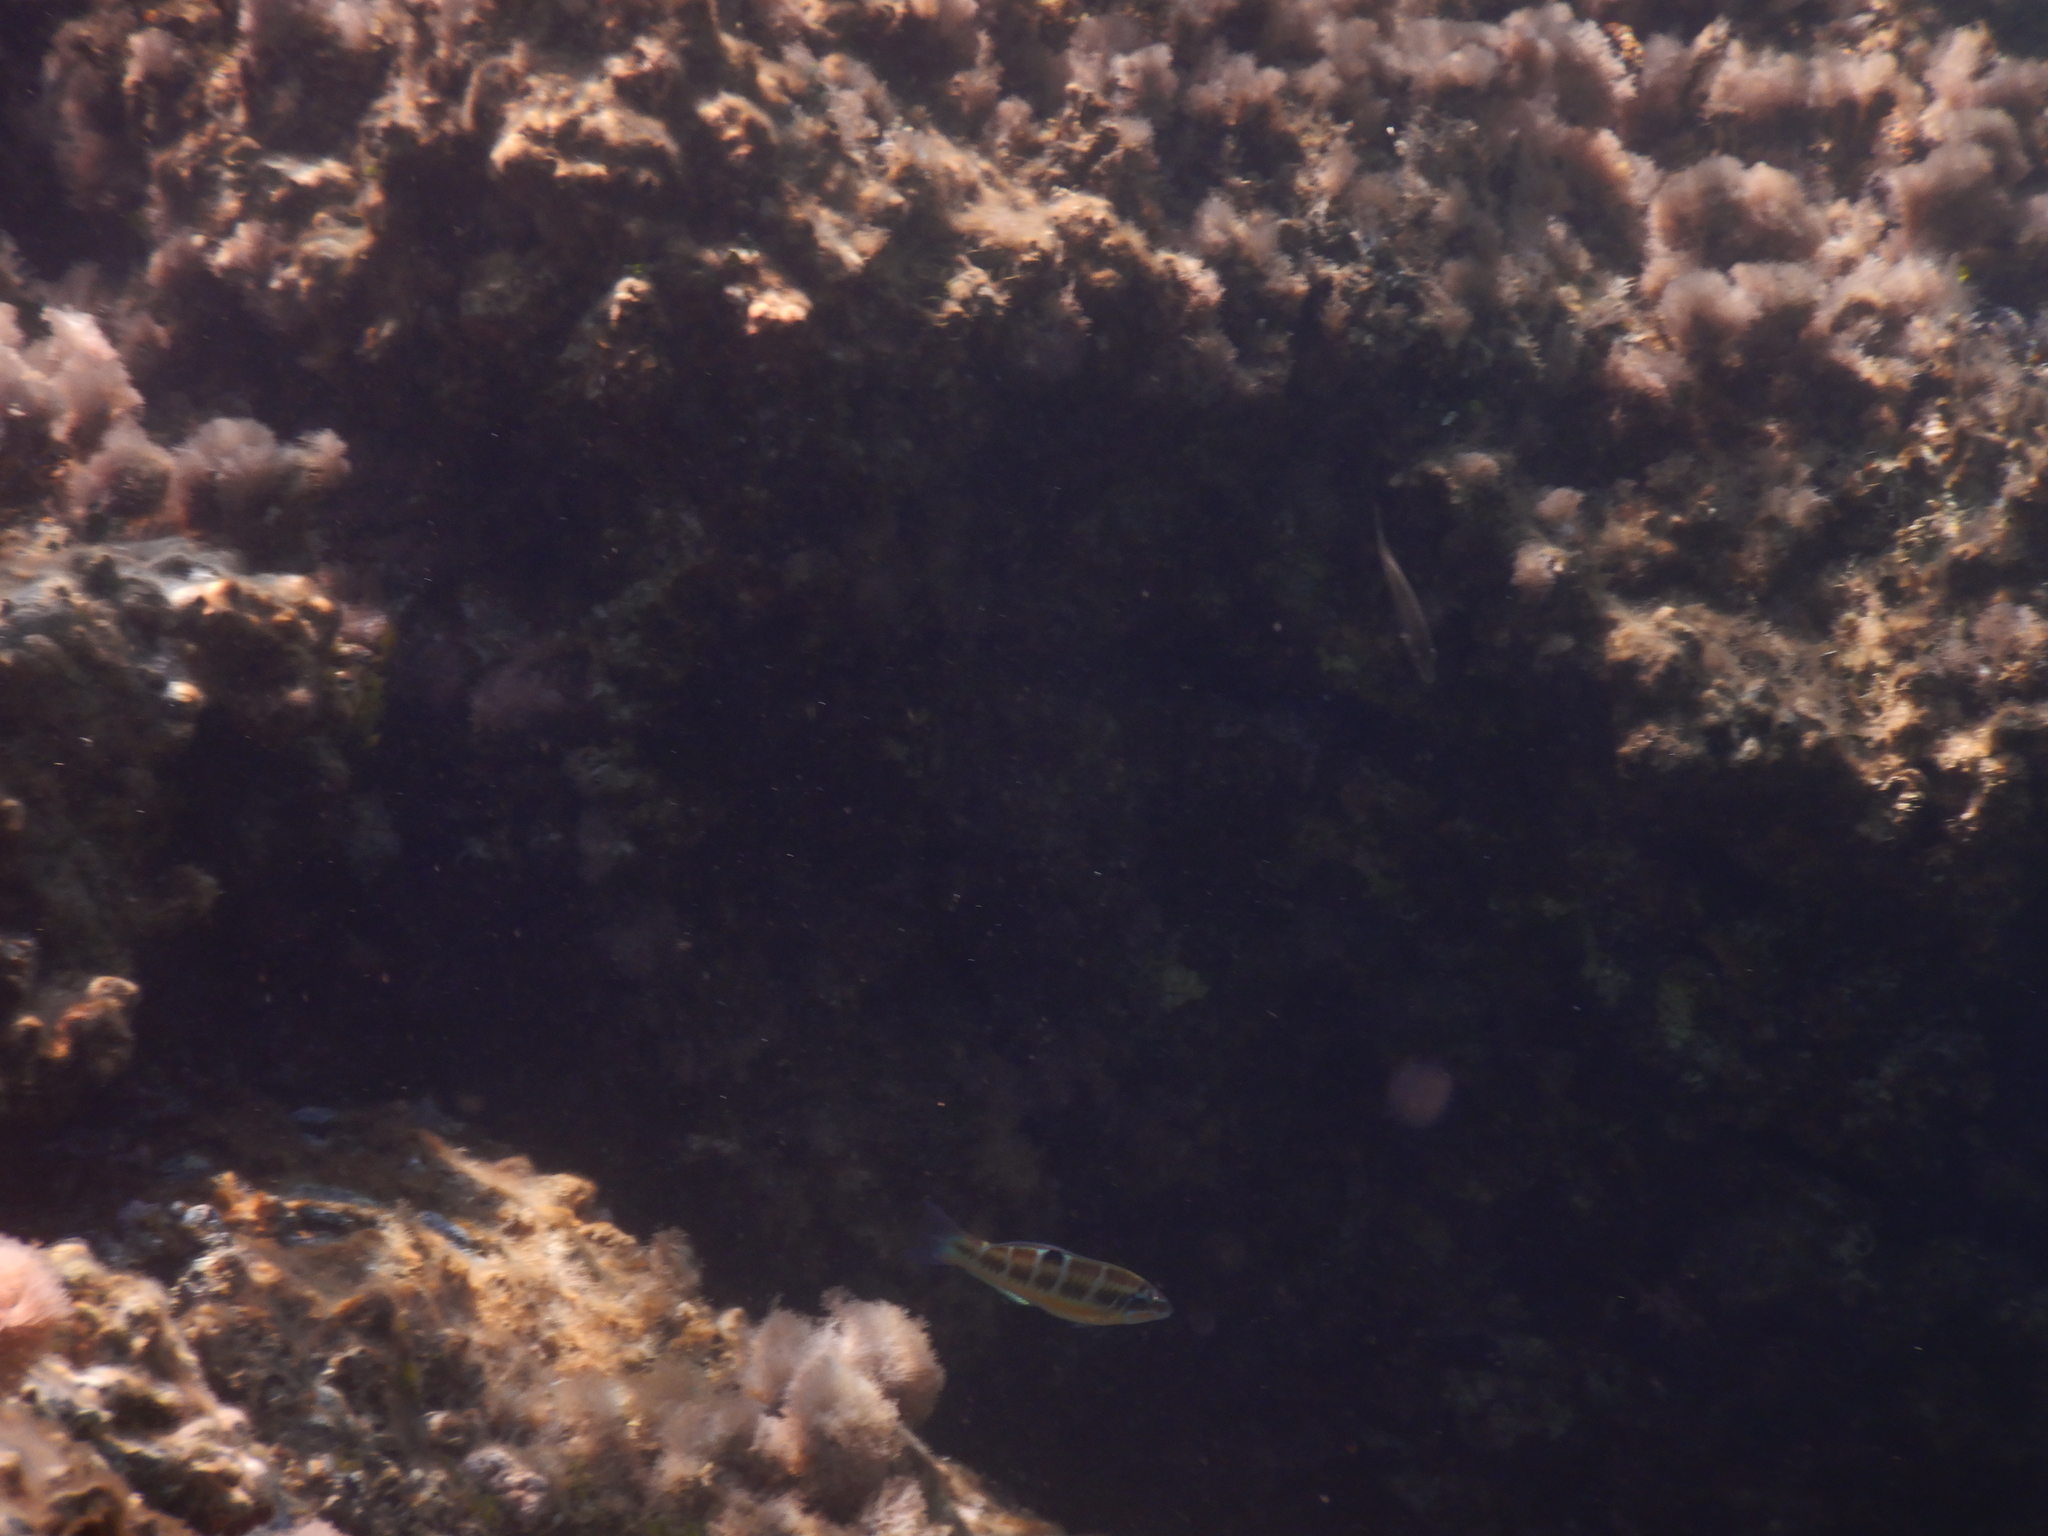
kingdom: Animalia
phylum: Chordata
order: Perciformes
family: Labridae
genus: Thalassoma
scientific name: Thalassoma pavo
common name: Ornate wrasse
